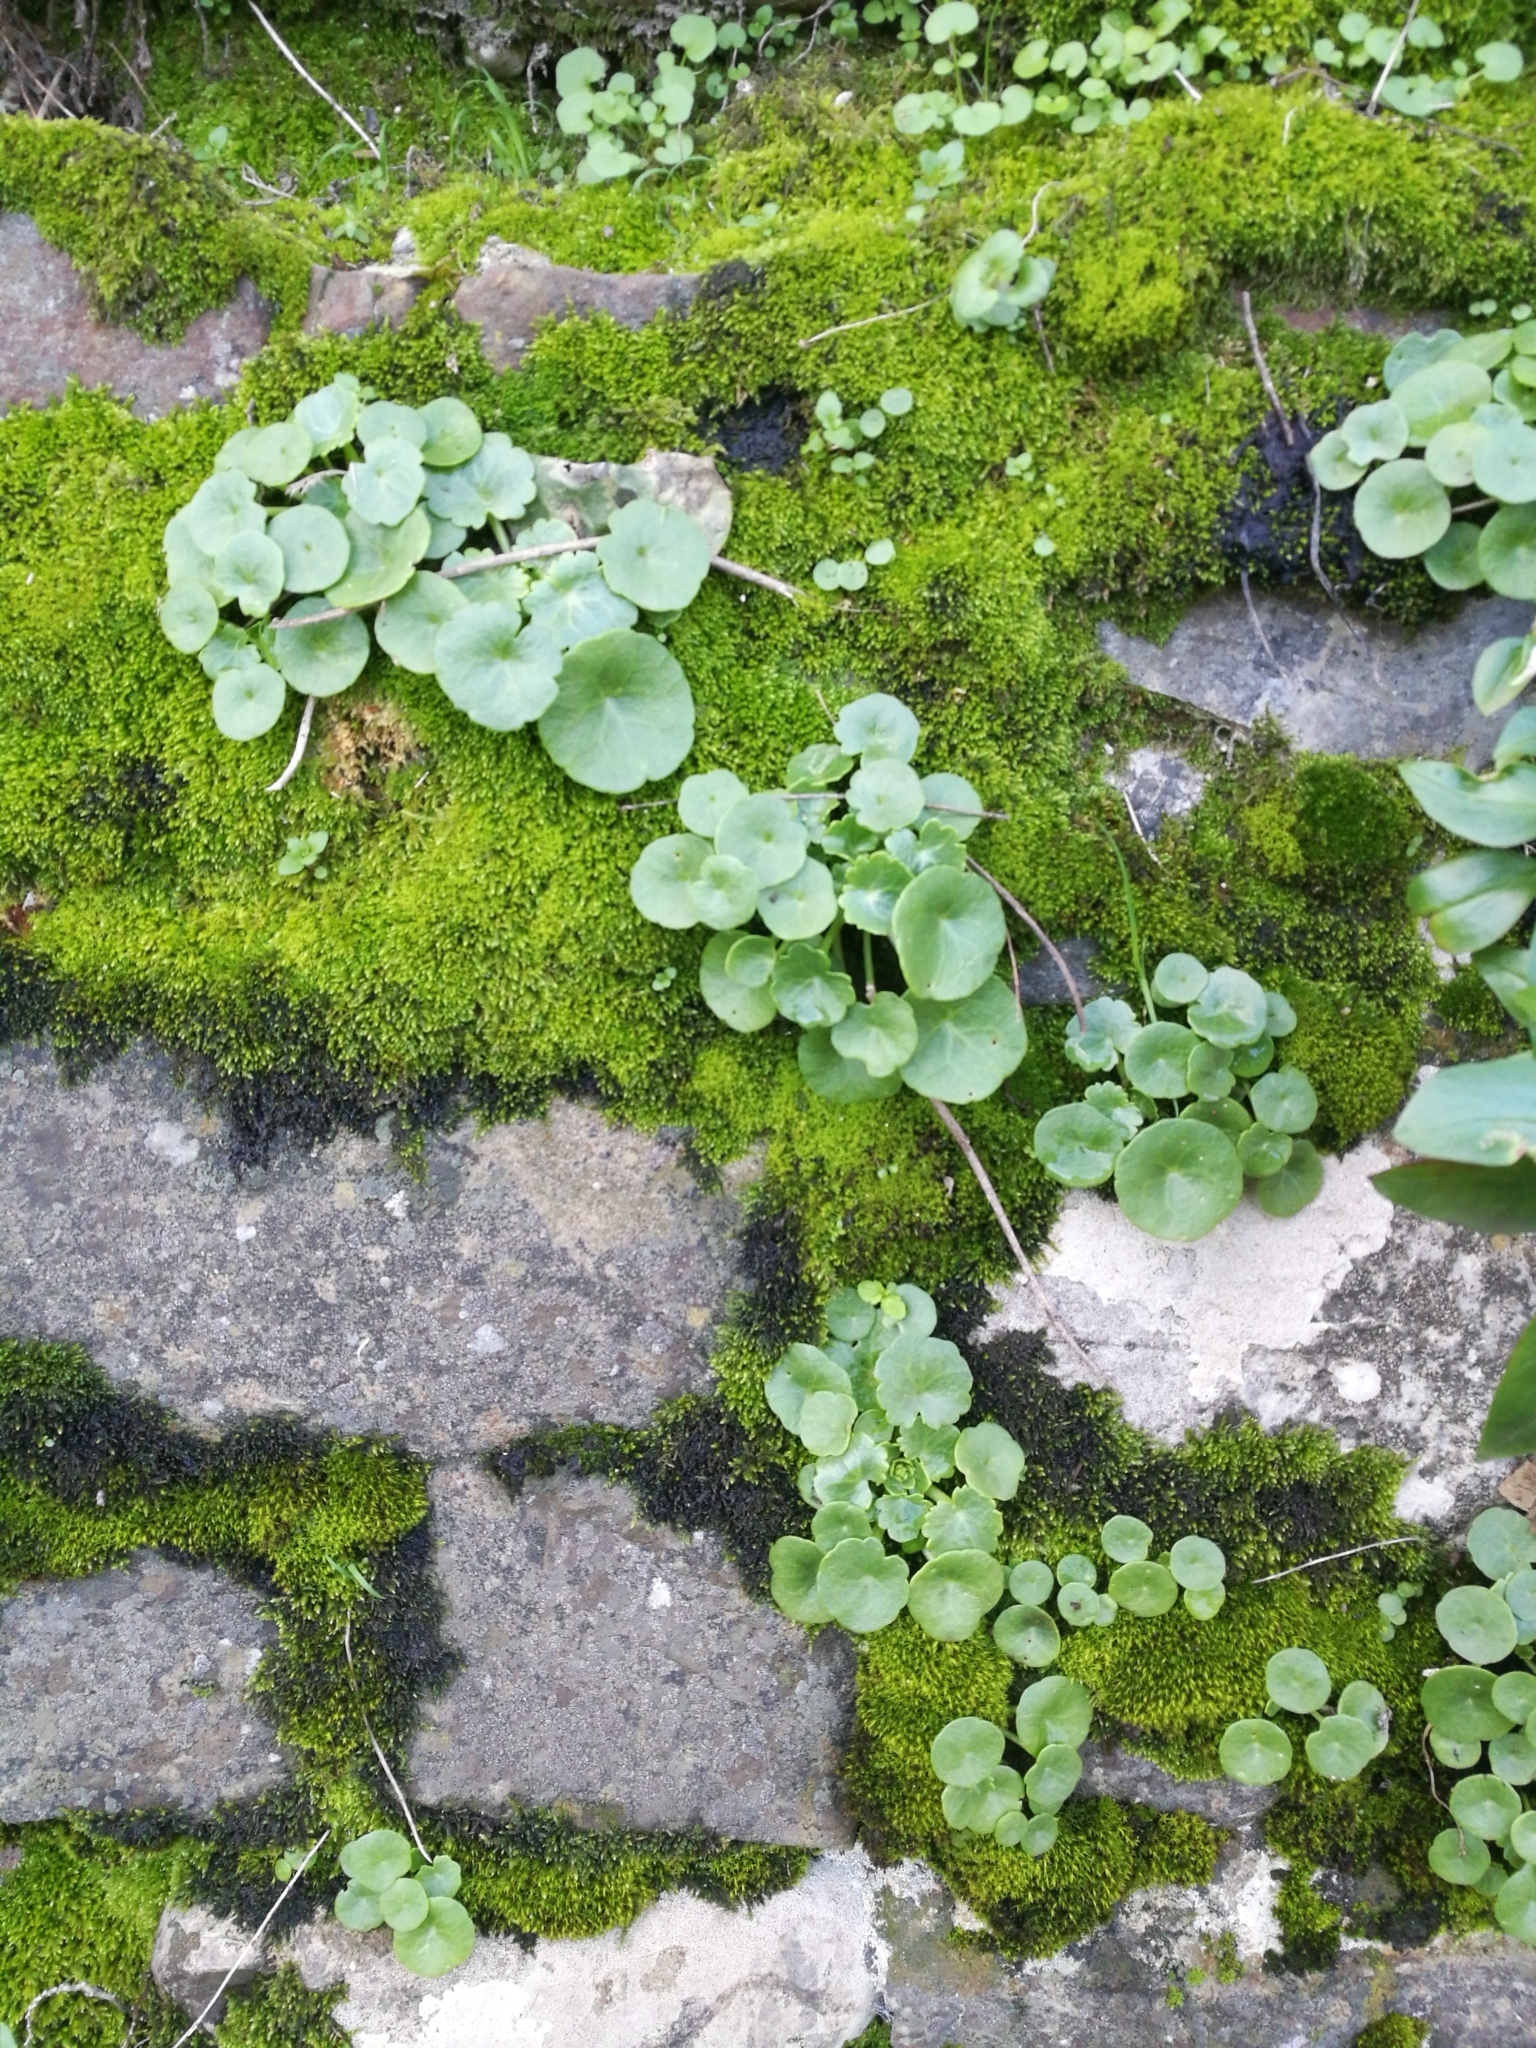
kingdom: Plantae
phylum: Tracheophyta
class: Magnoliopsida
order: Saxifragales
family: Crassulaceae
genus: Umbilicus
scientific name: Umbilicus rupestris
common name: Navelwort
